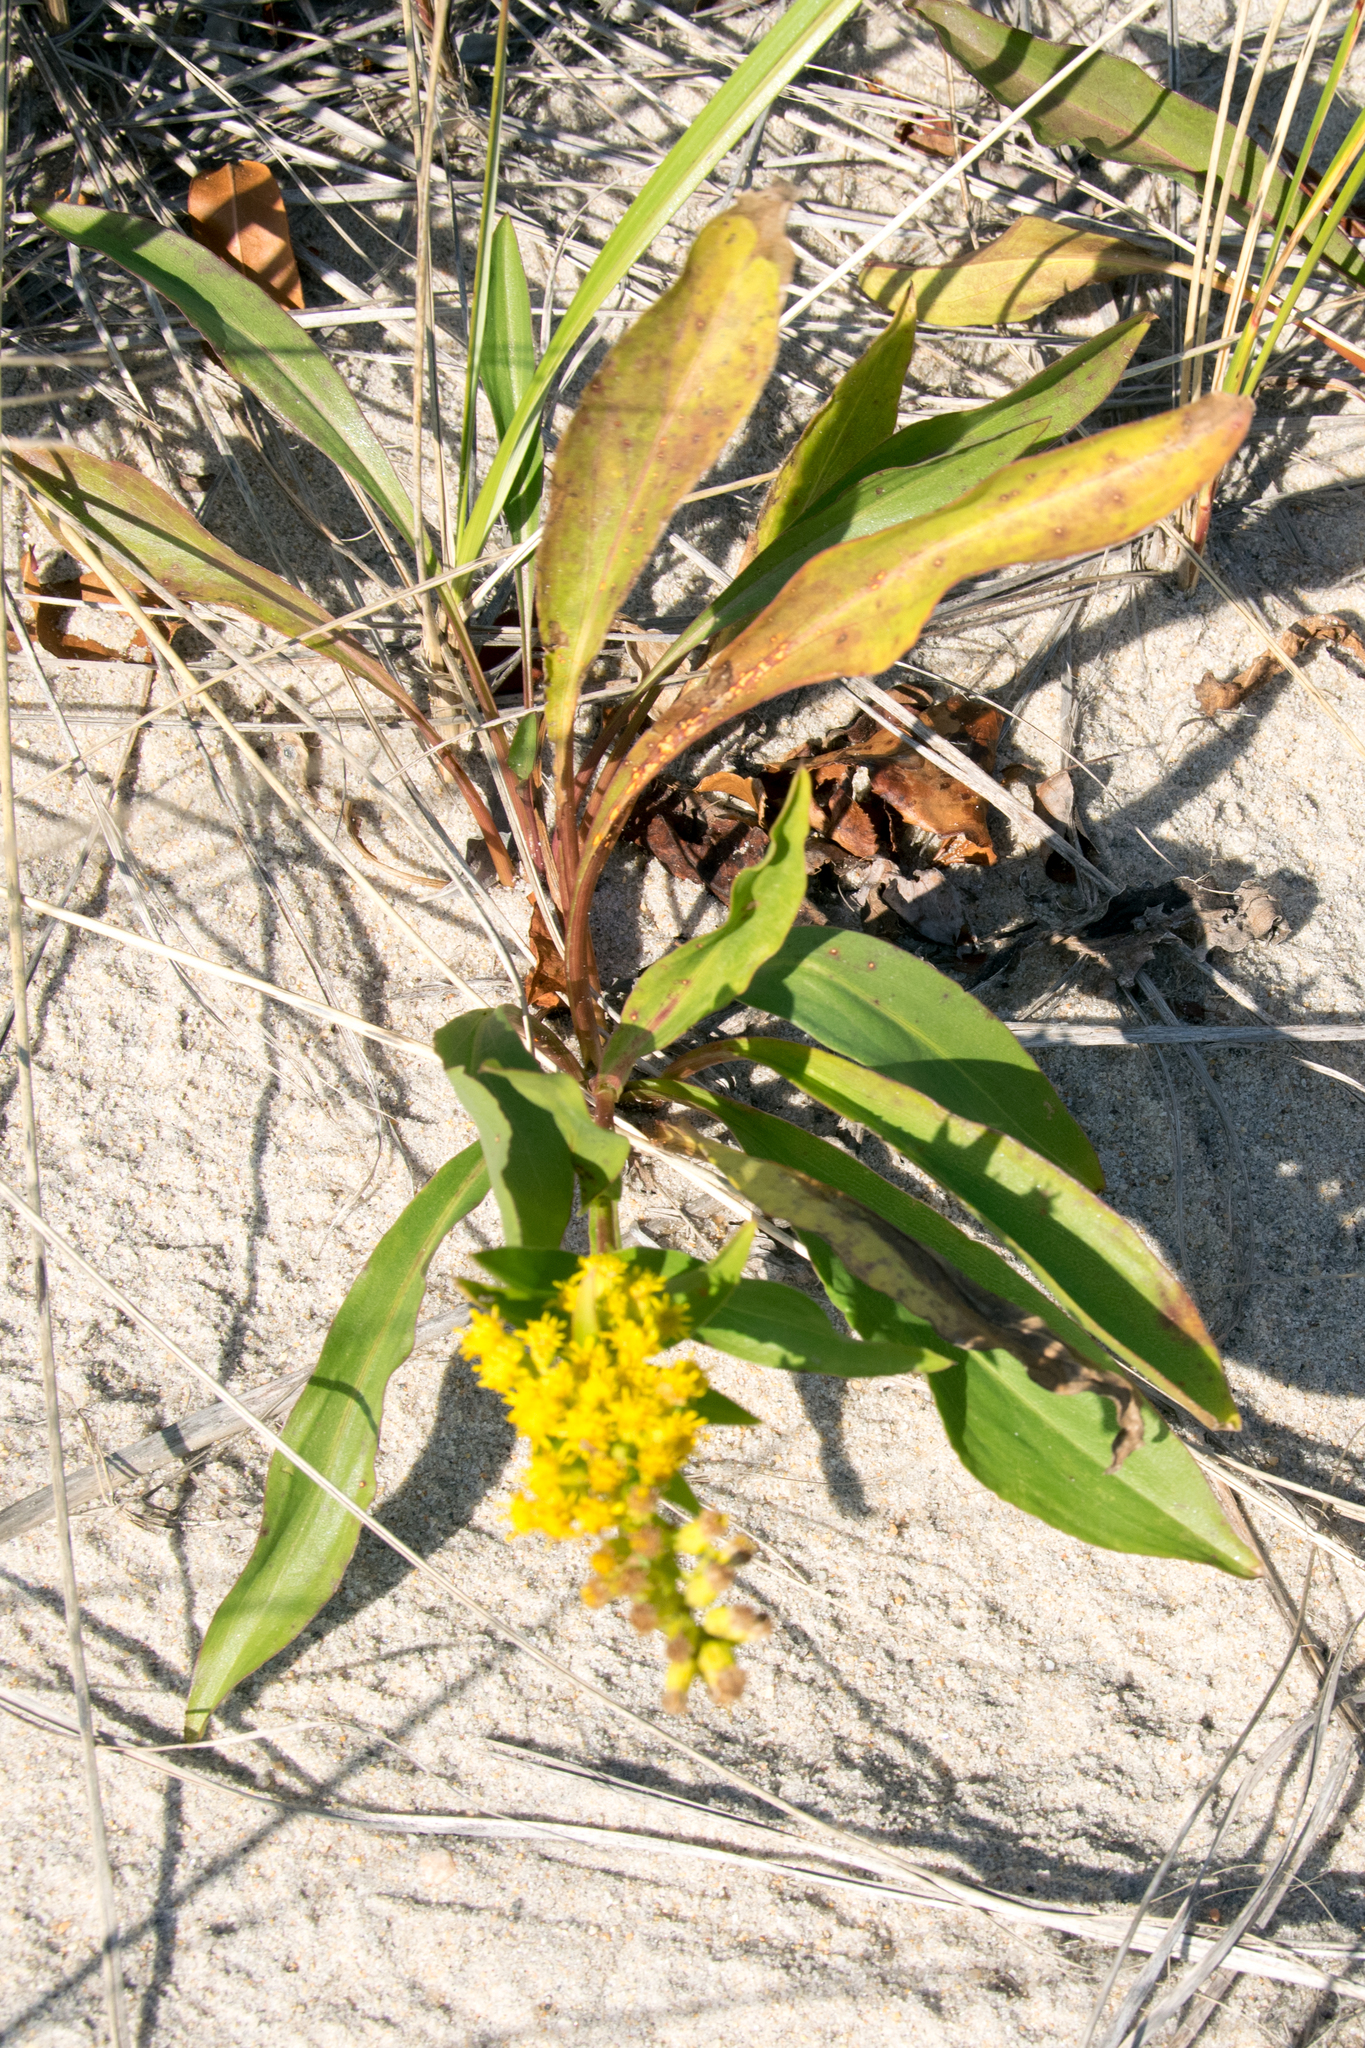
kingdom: Plantae
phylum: Tracheophyta
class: Magnoliopsida
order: Asterales
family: Asteraceae
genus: Solidago
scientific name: Solidago sempervirens
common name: Salt-marsh goldenrod
